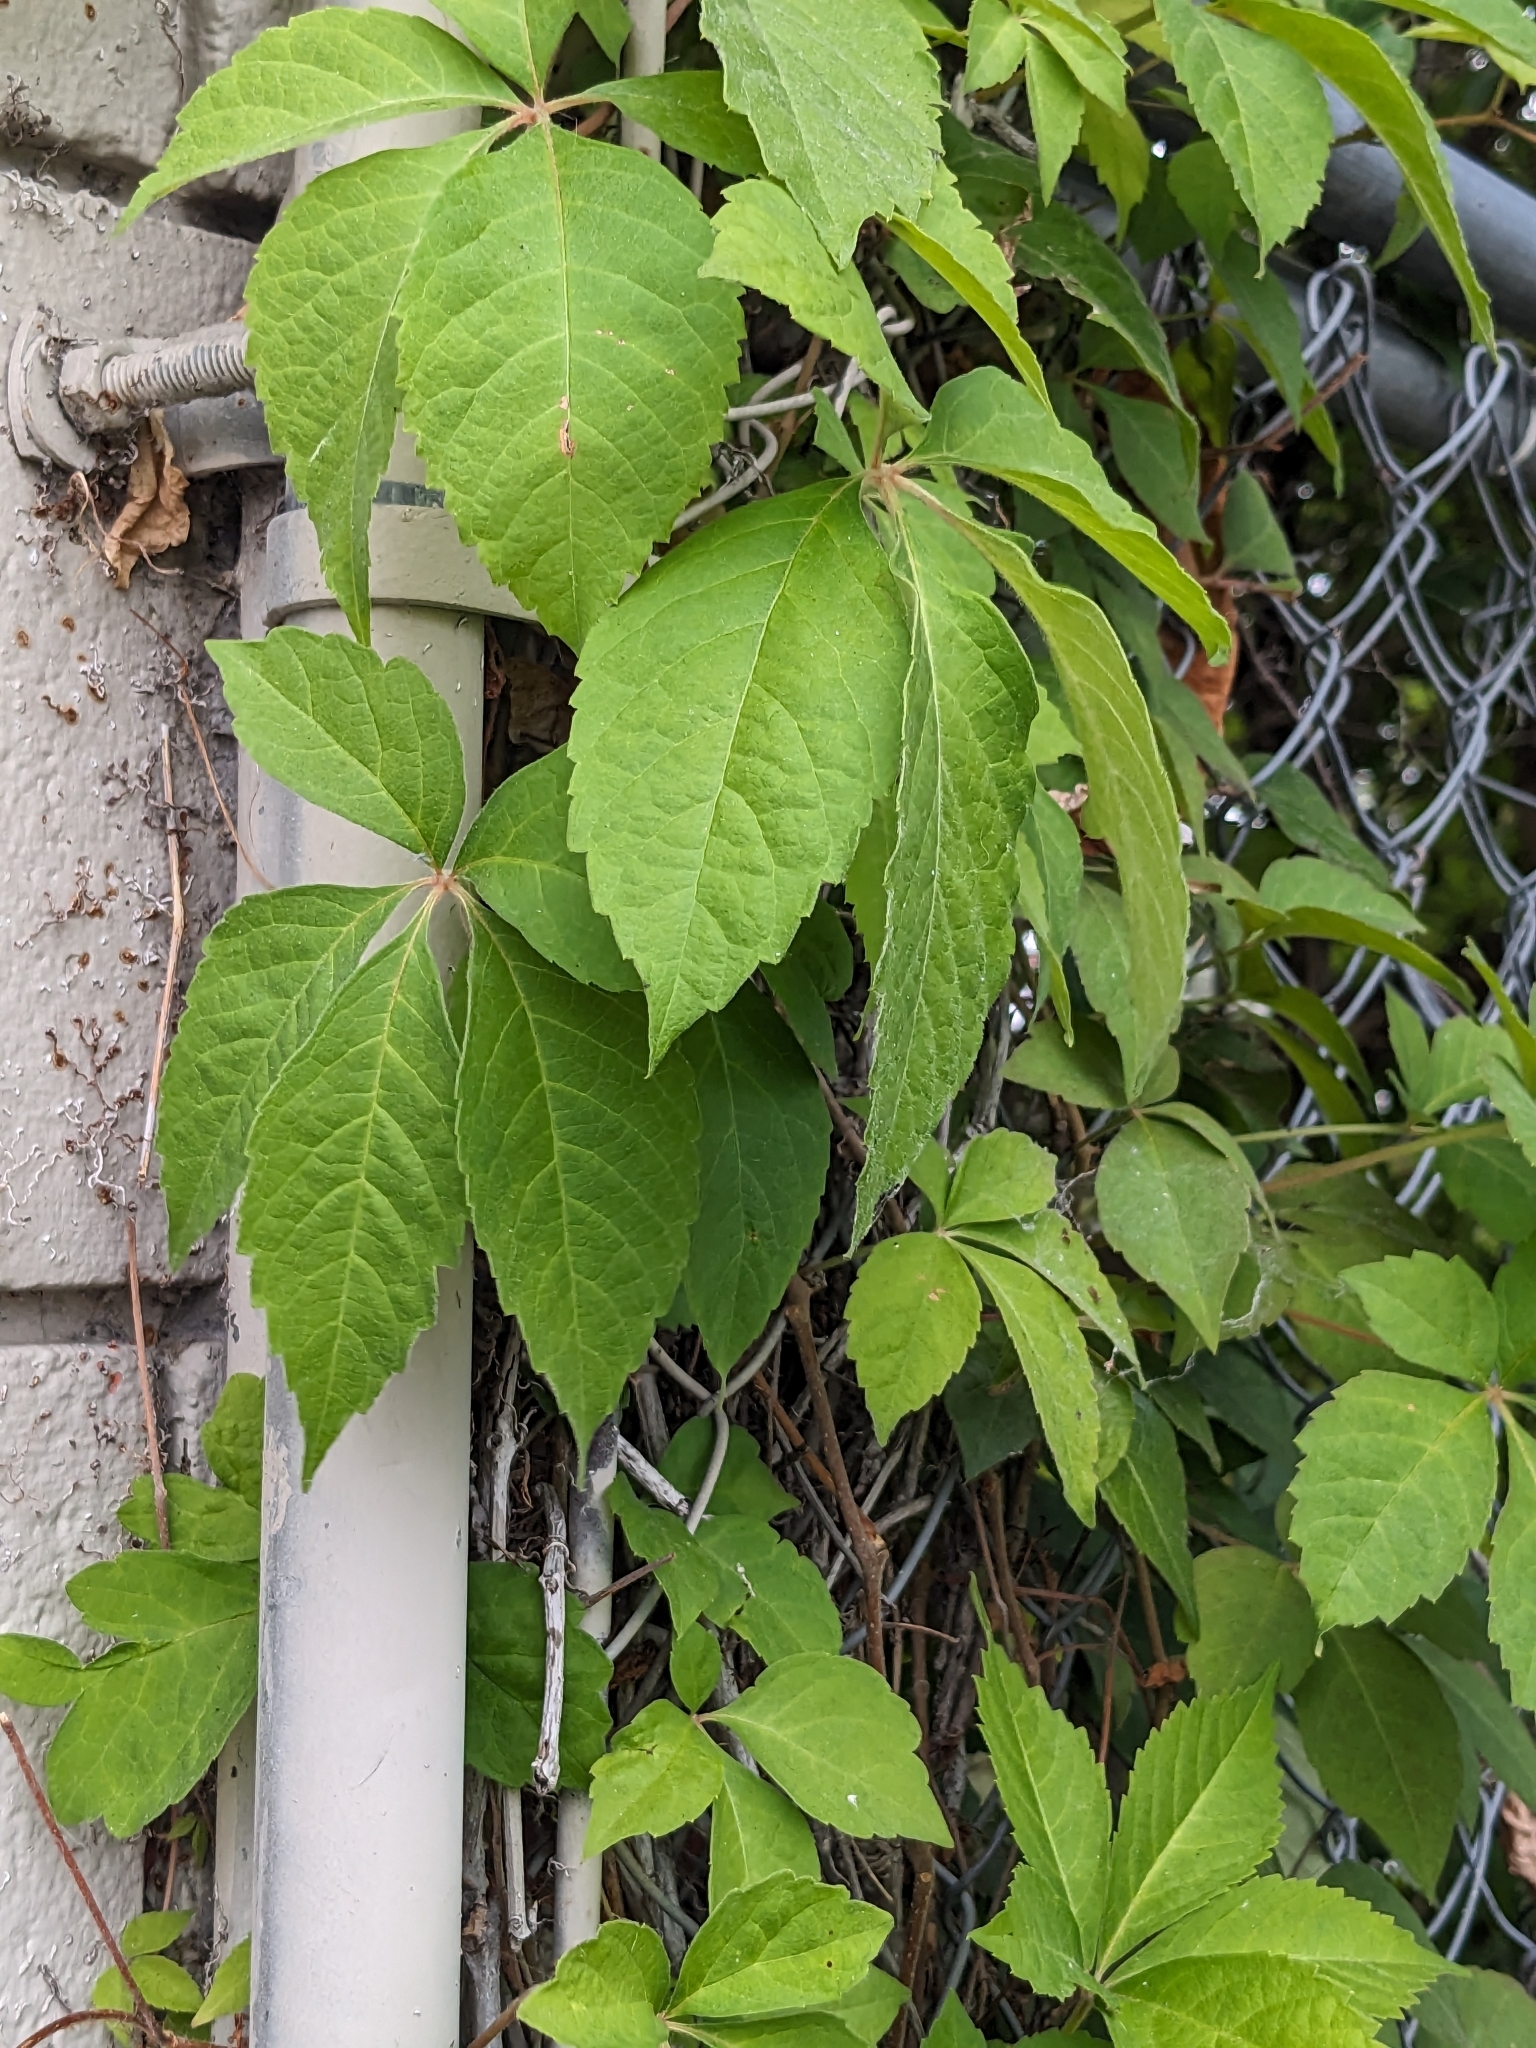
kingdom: Plantae
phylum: Tracheophyta
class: Magnoliopsida
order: Vitales
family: Vitaceae
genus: Parthenocissus
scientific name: Parthenocissus quinquefolia
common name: Virginia-creeper
